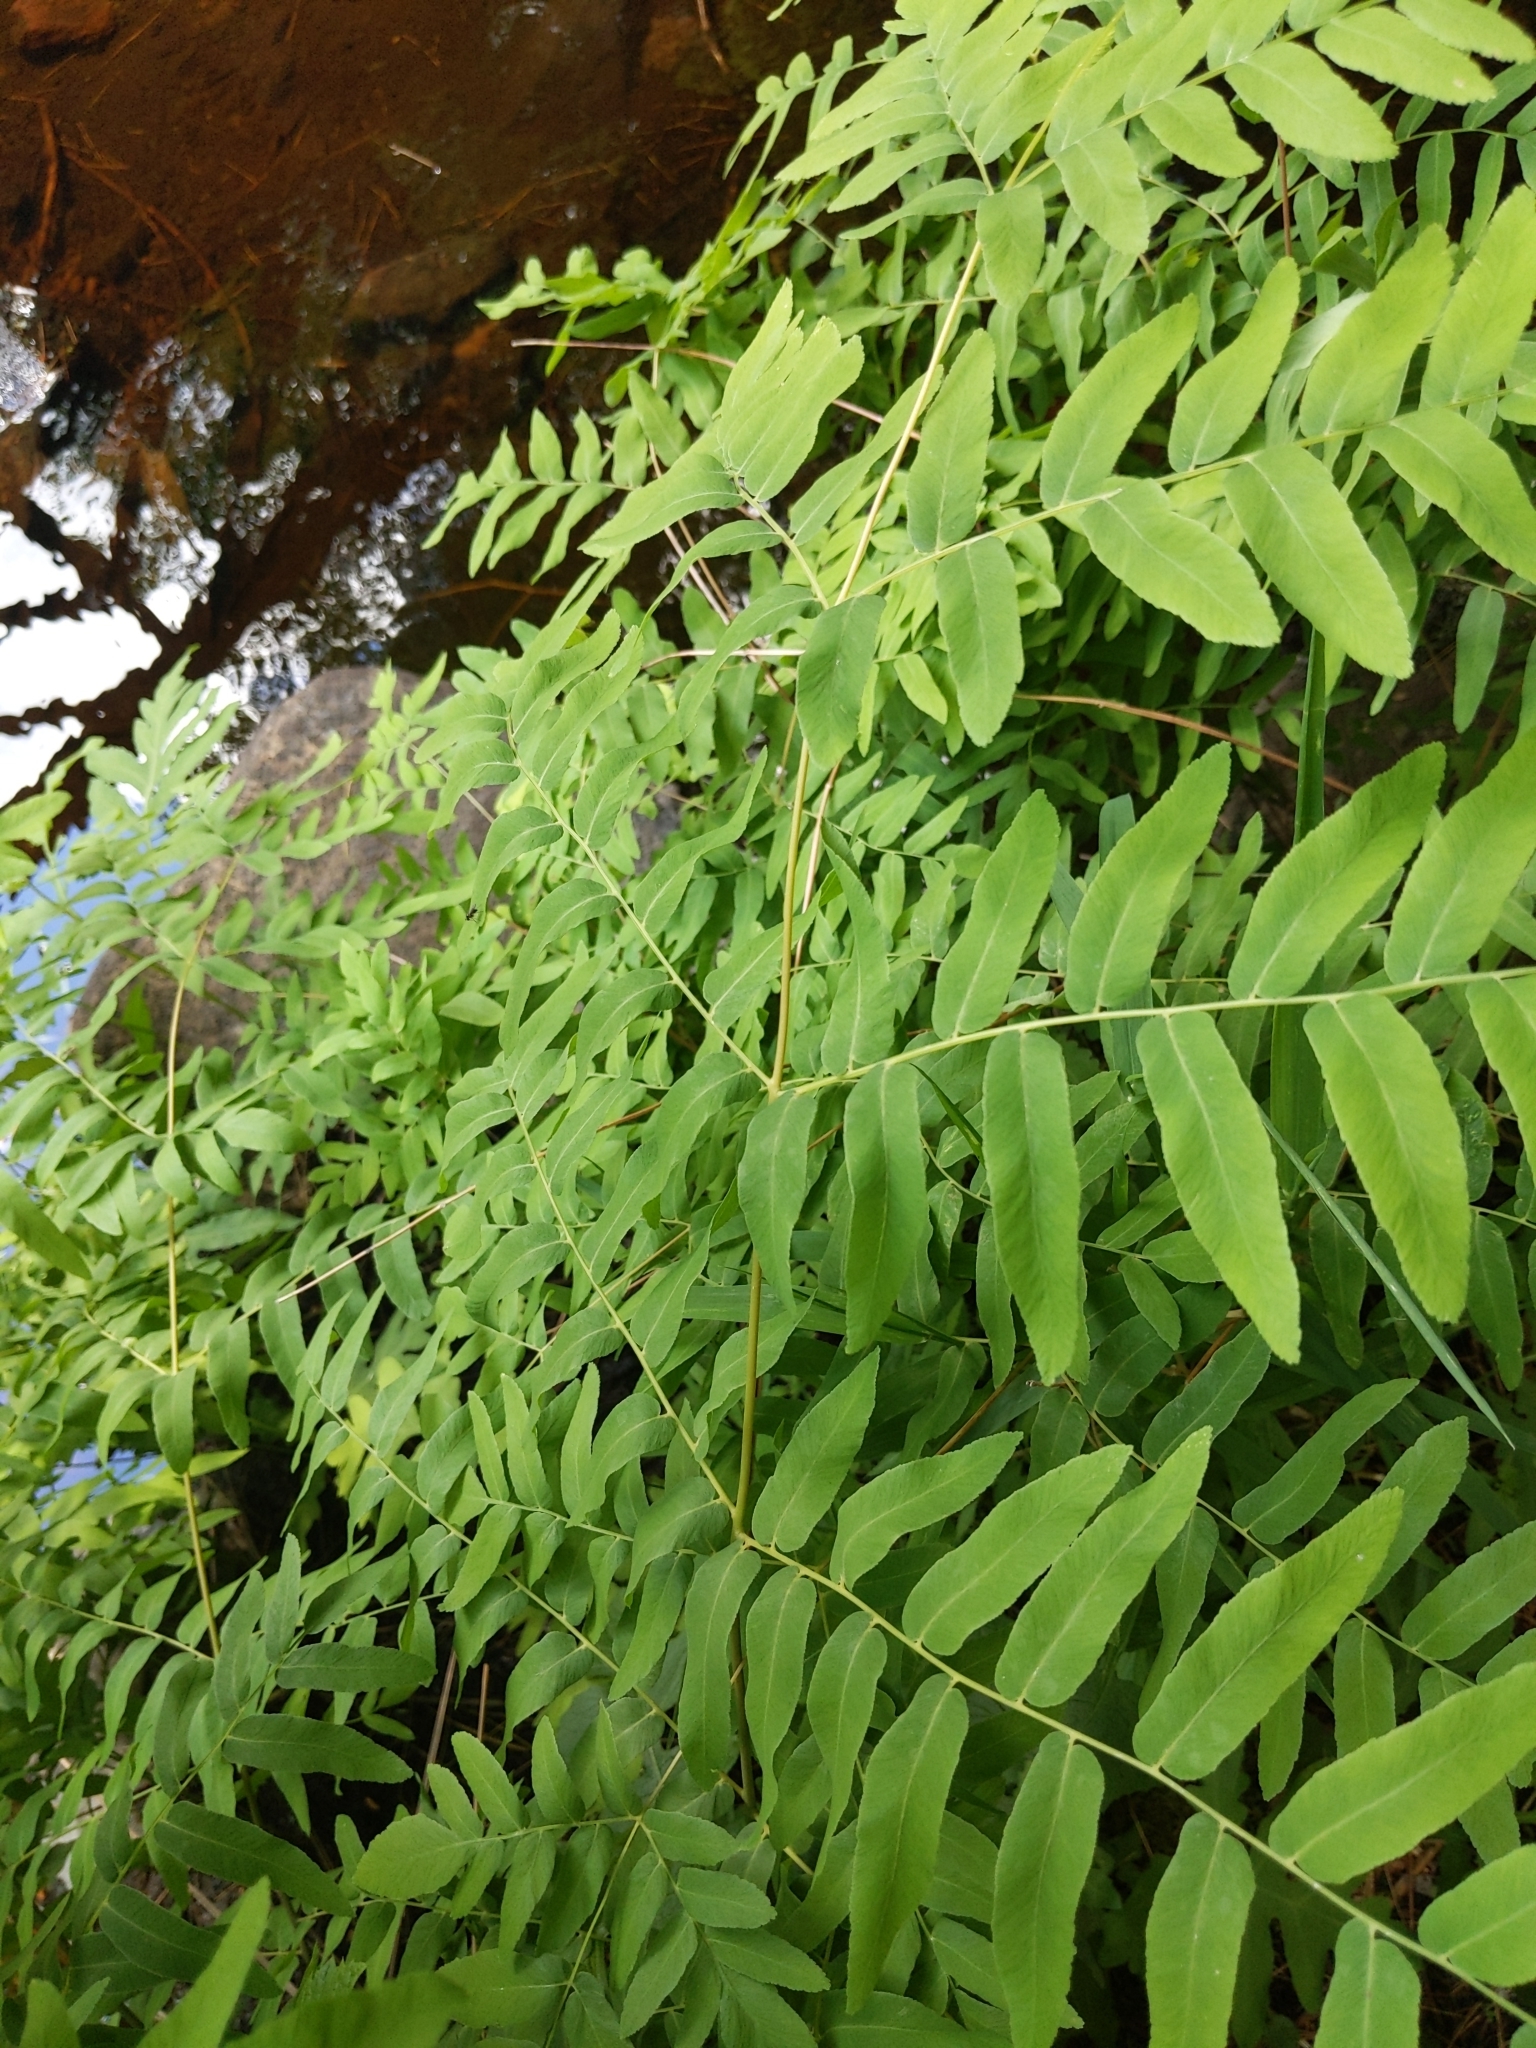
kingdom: Plantae
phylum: Tracheophyta
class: Polypodiopsida
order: Osmundales
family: Osmundaceae
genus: Osmunda
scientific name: Osmunda spectabilis
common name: American royal fern
